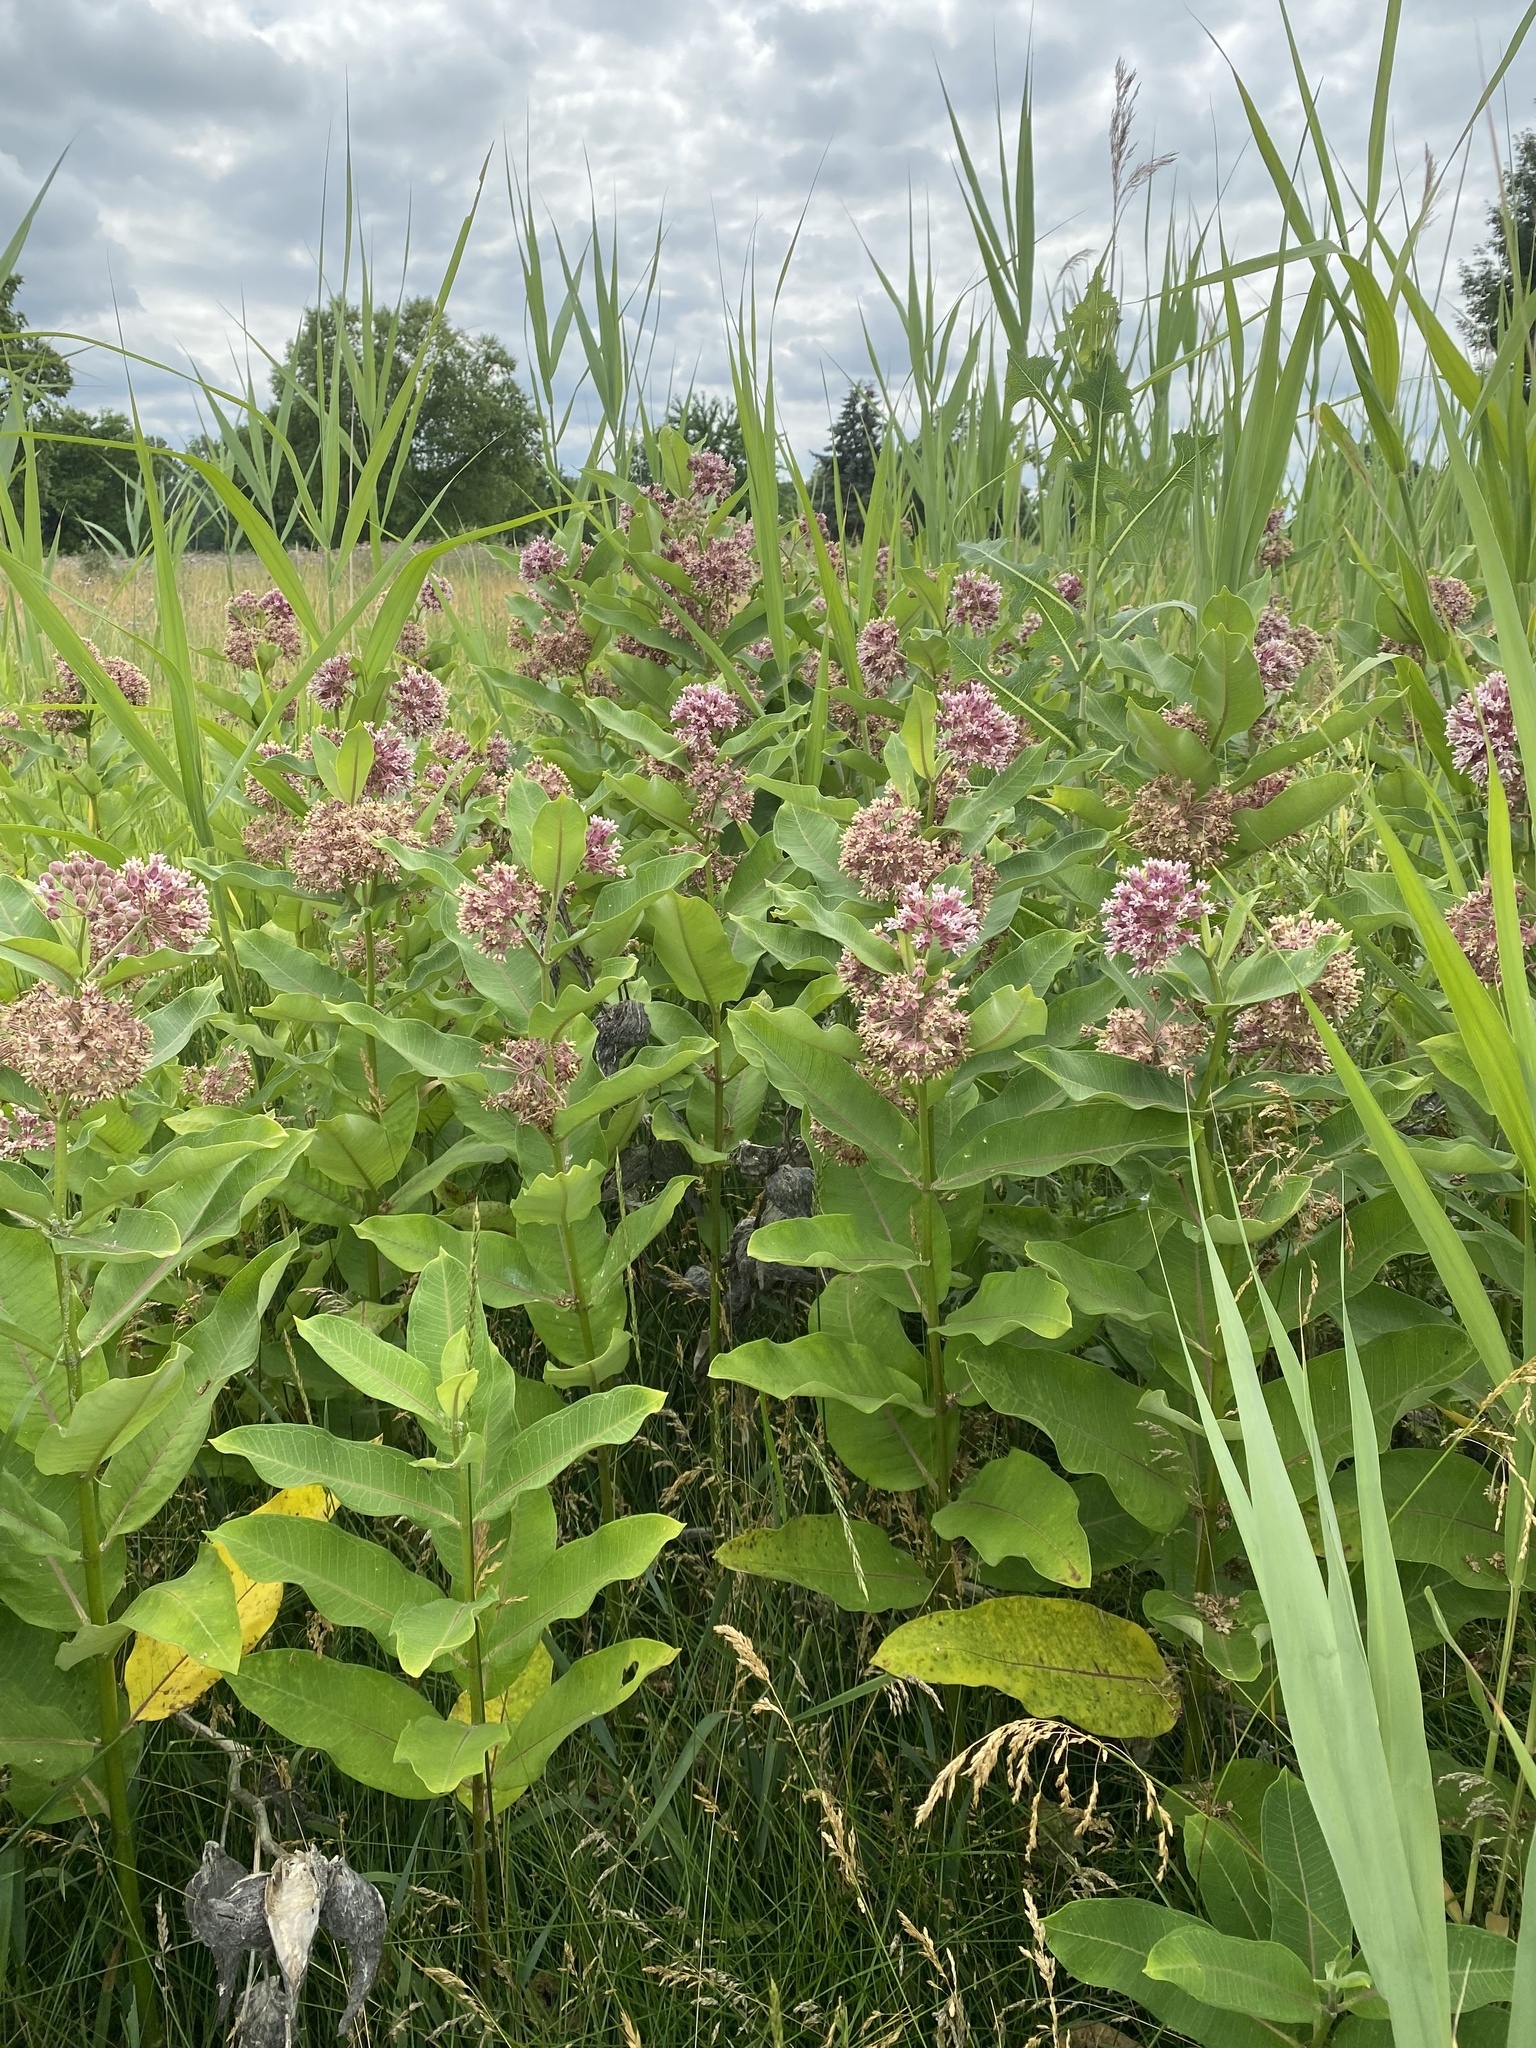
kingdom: Plantae
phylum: Tracheophyta
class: Magnoliopsida
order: Gentianales
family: Apocynaceae
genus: Asclepias
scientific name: Asclepias syriaca
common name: Common milkweed
